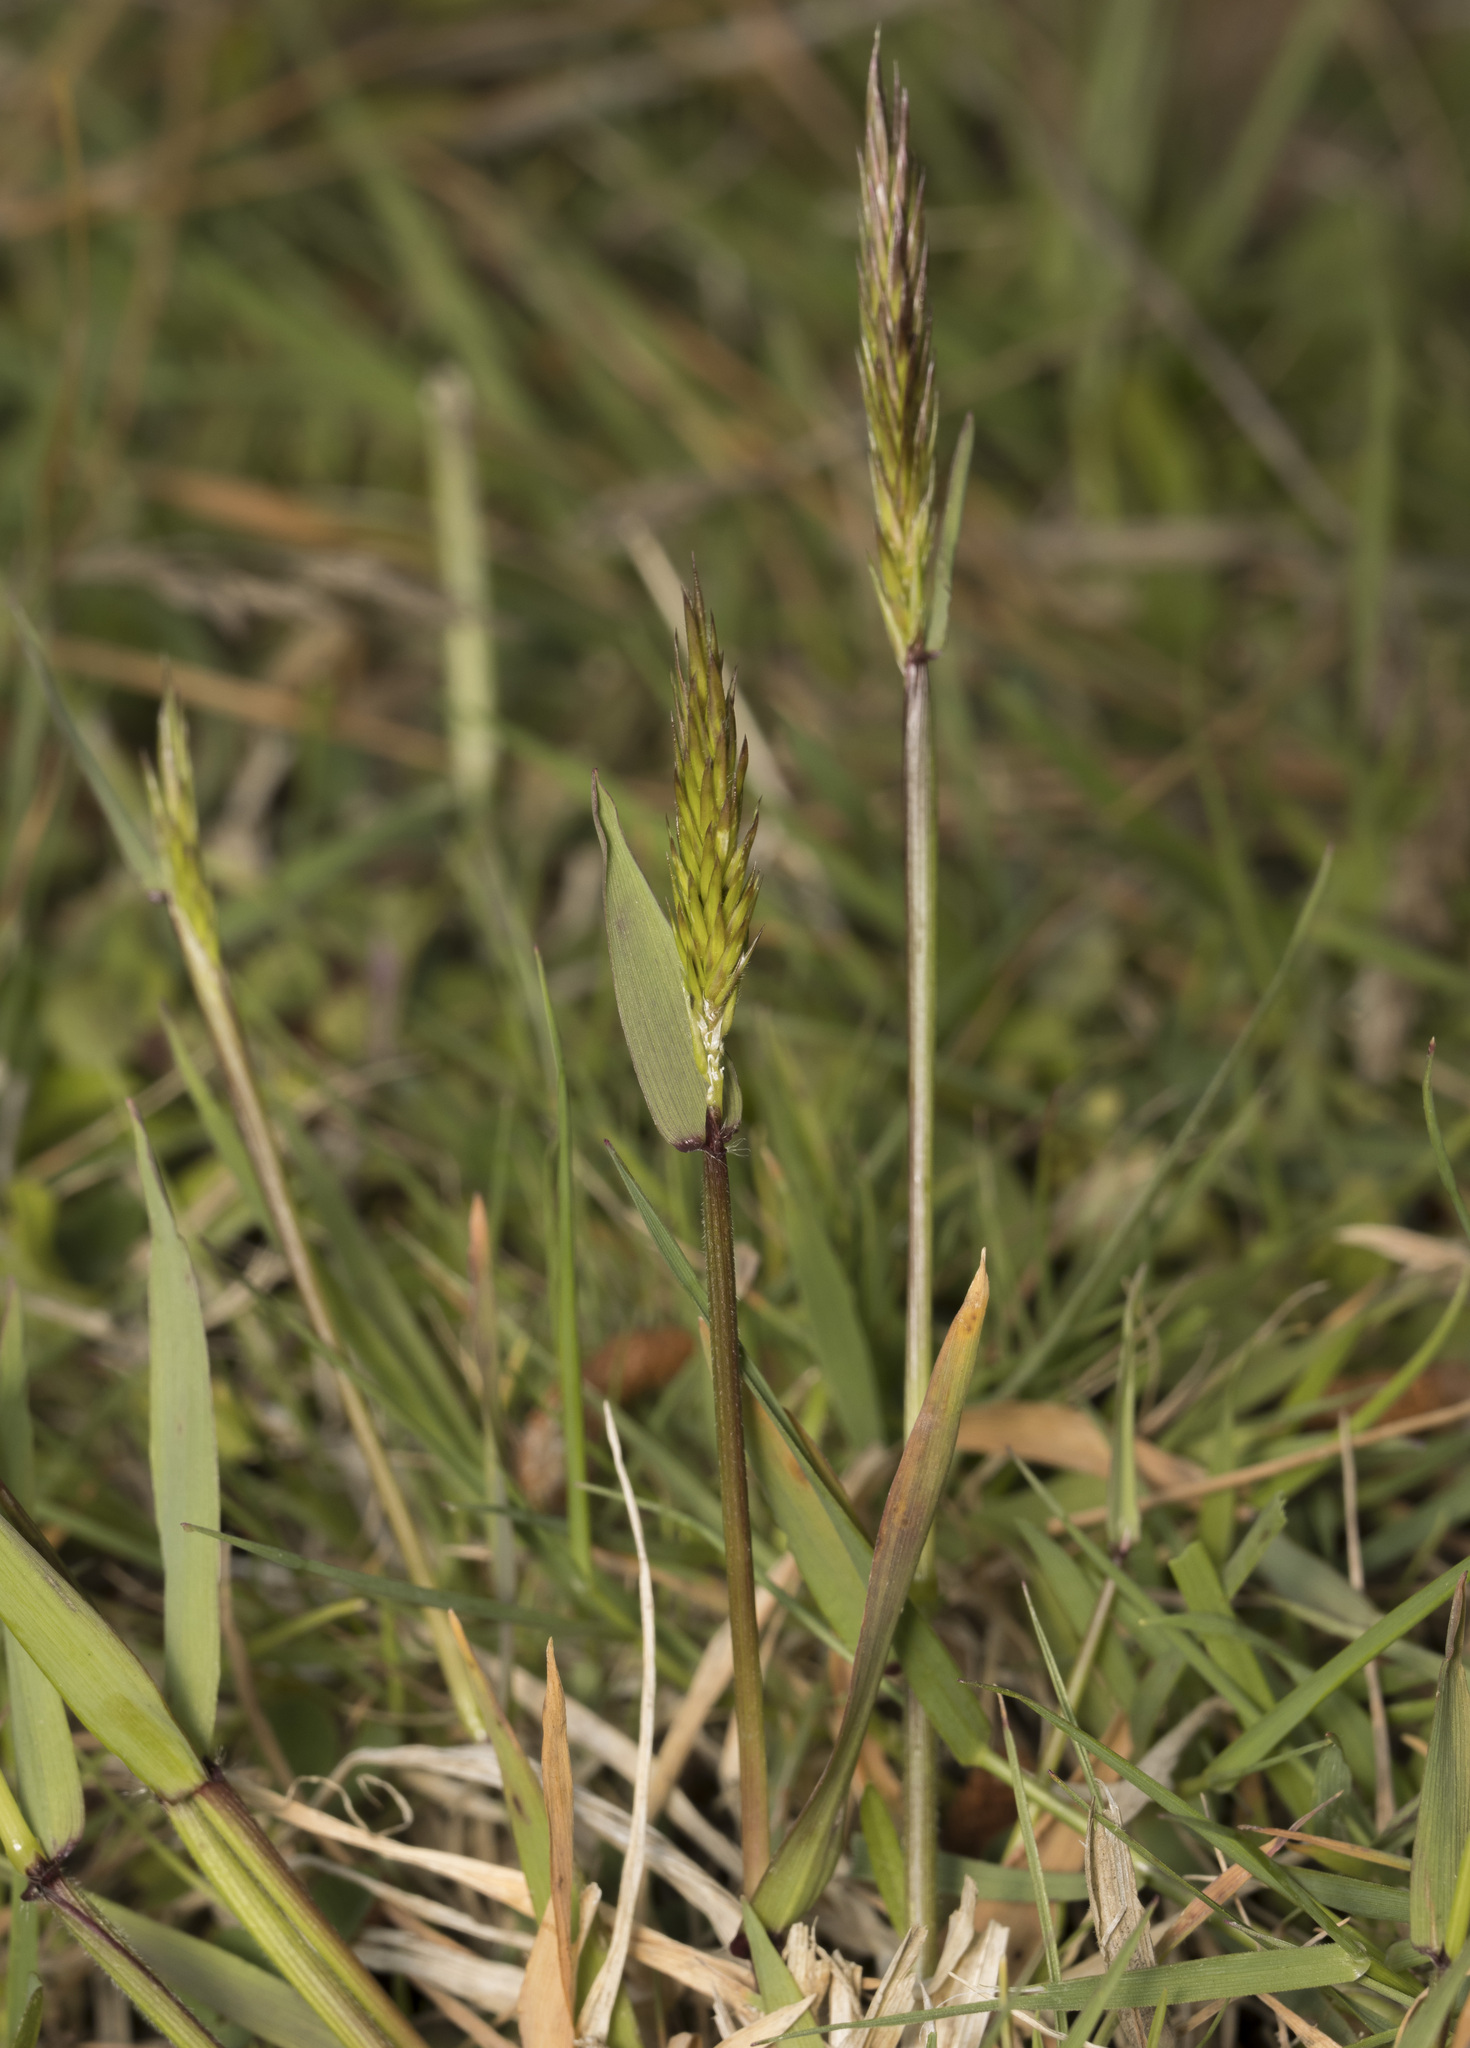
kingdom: Plantae
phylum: Tracheophyta
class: Liliopsida
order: Poales
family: Poaceae
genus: Anthoxanthum
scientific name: Anthoxanthum odoratum
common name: Sweet vernalgrass
